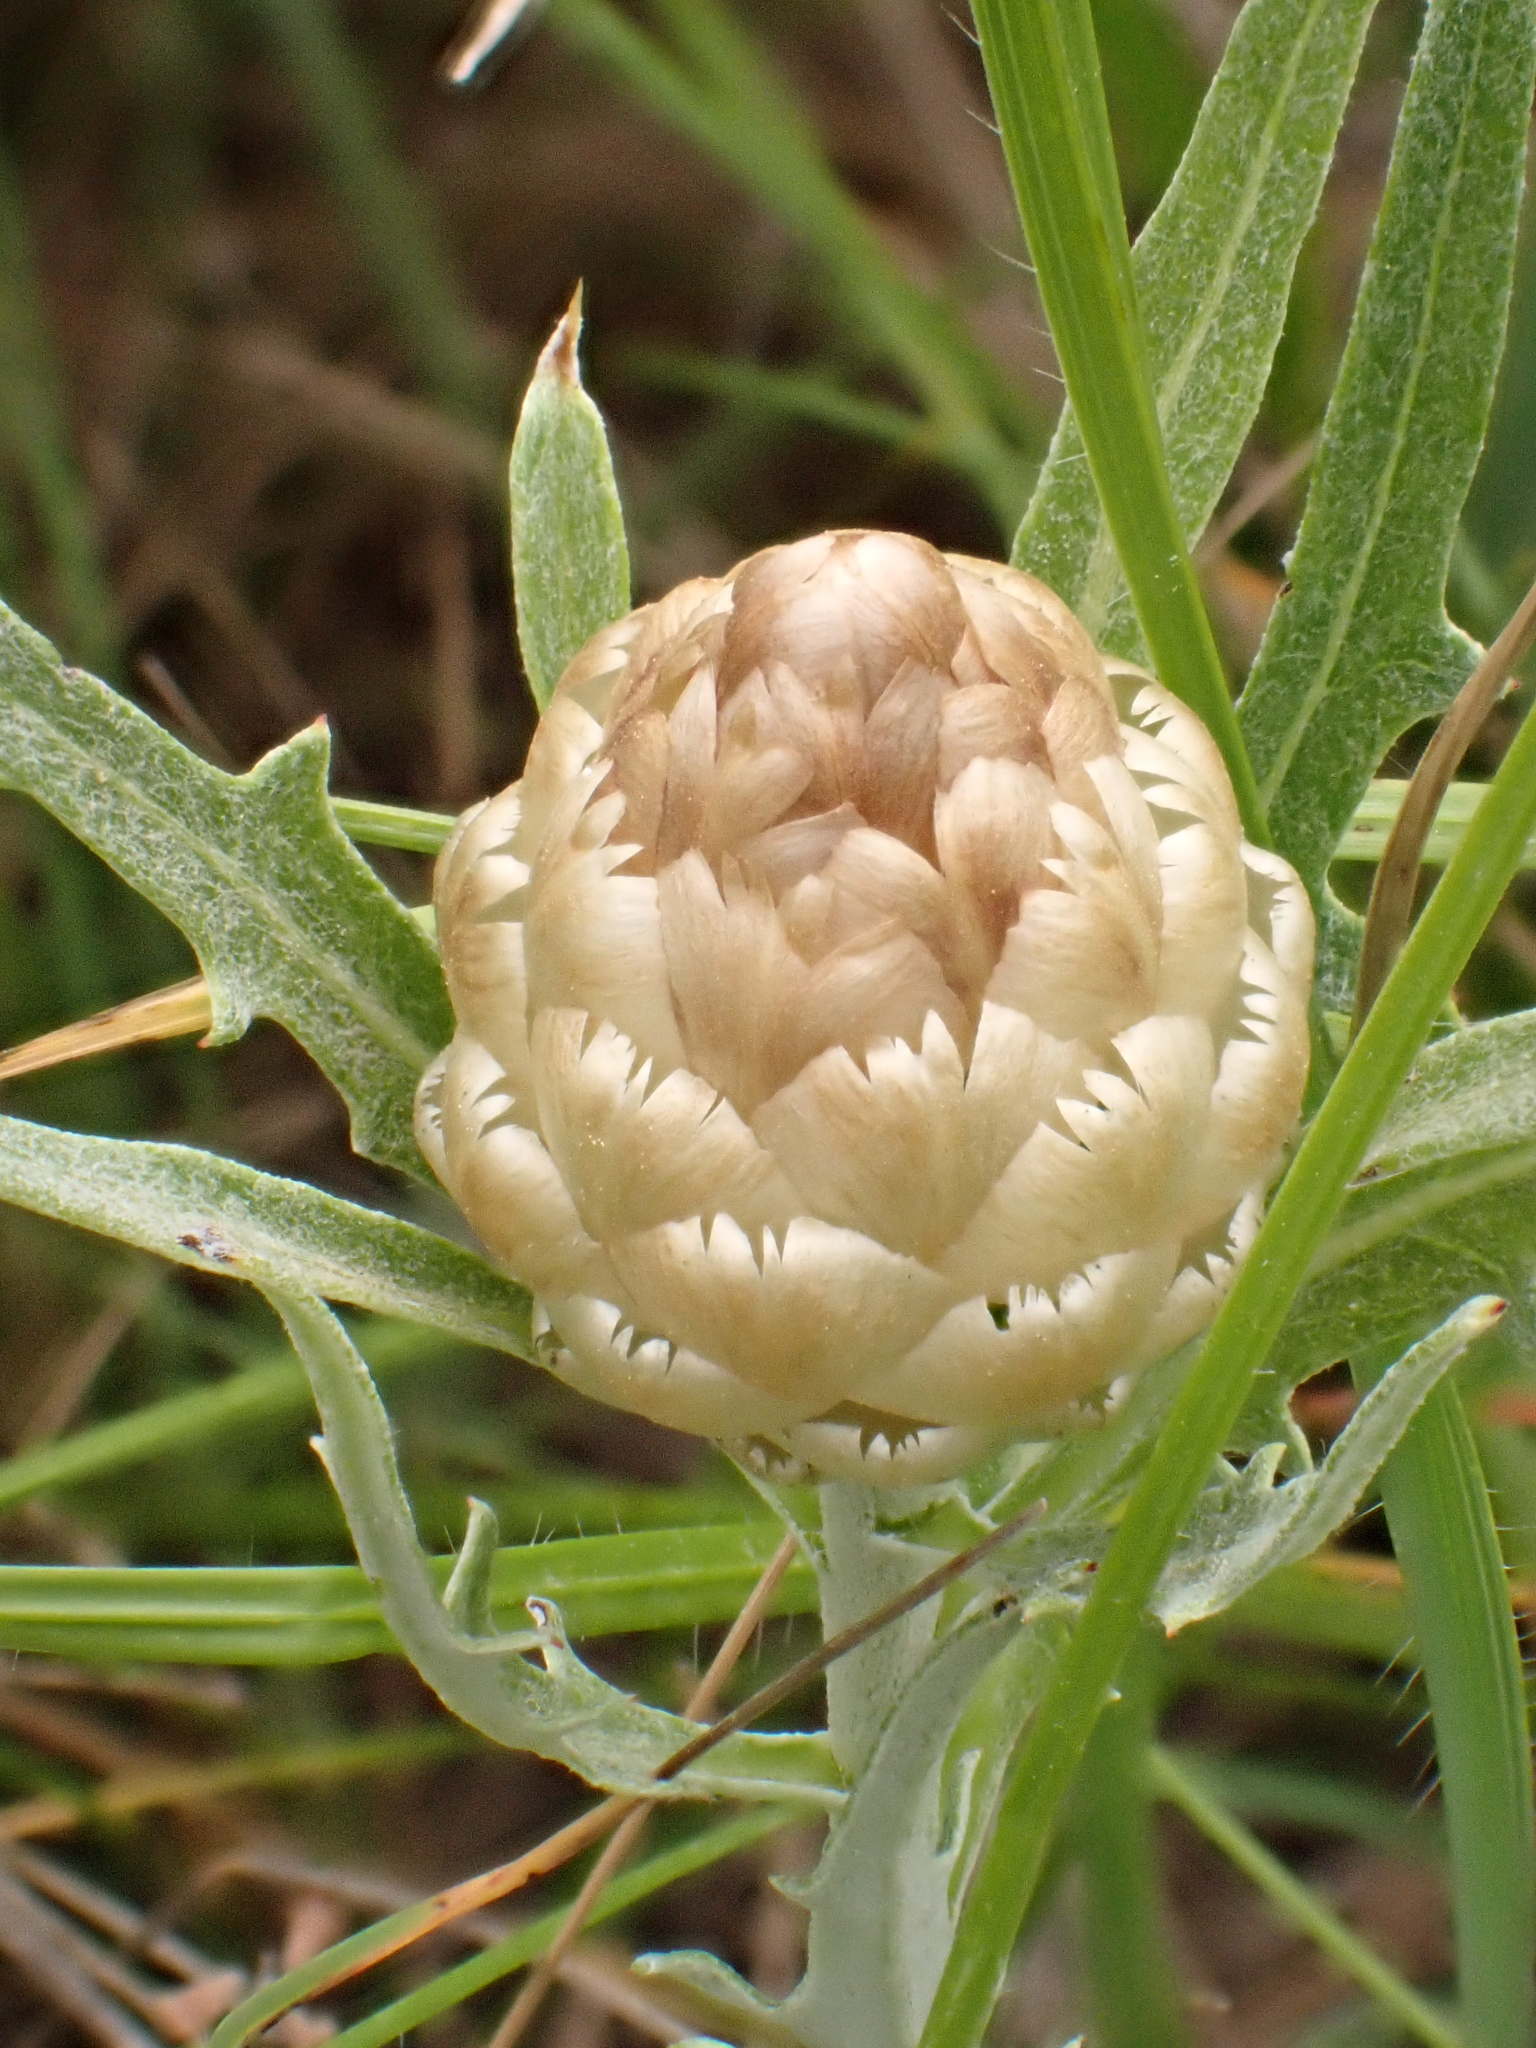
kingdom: Plantae
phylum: Tracheophyta
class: Magnoliopsida
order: Asterales
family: Asteraceae
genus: Leuzea
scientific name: Leuzea conifera
